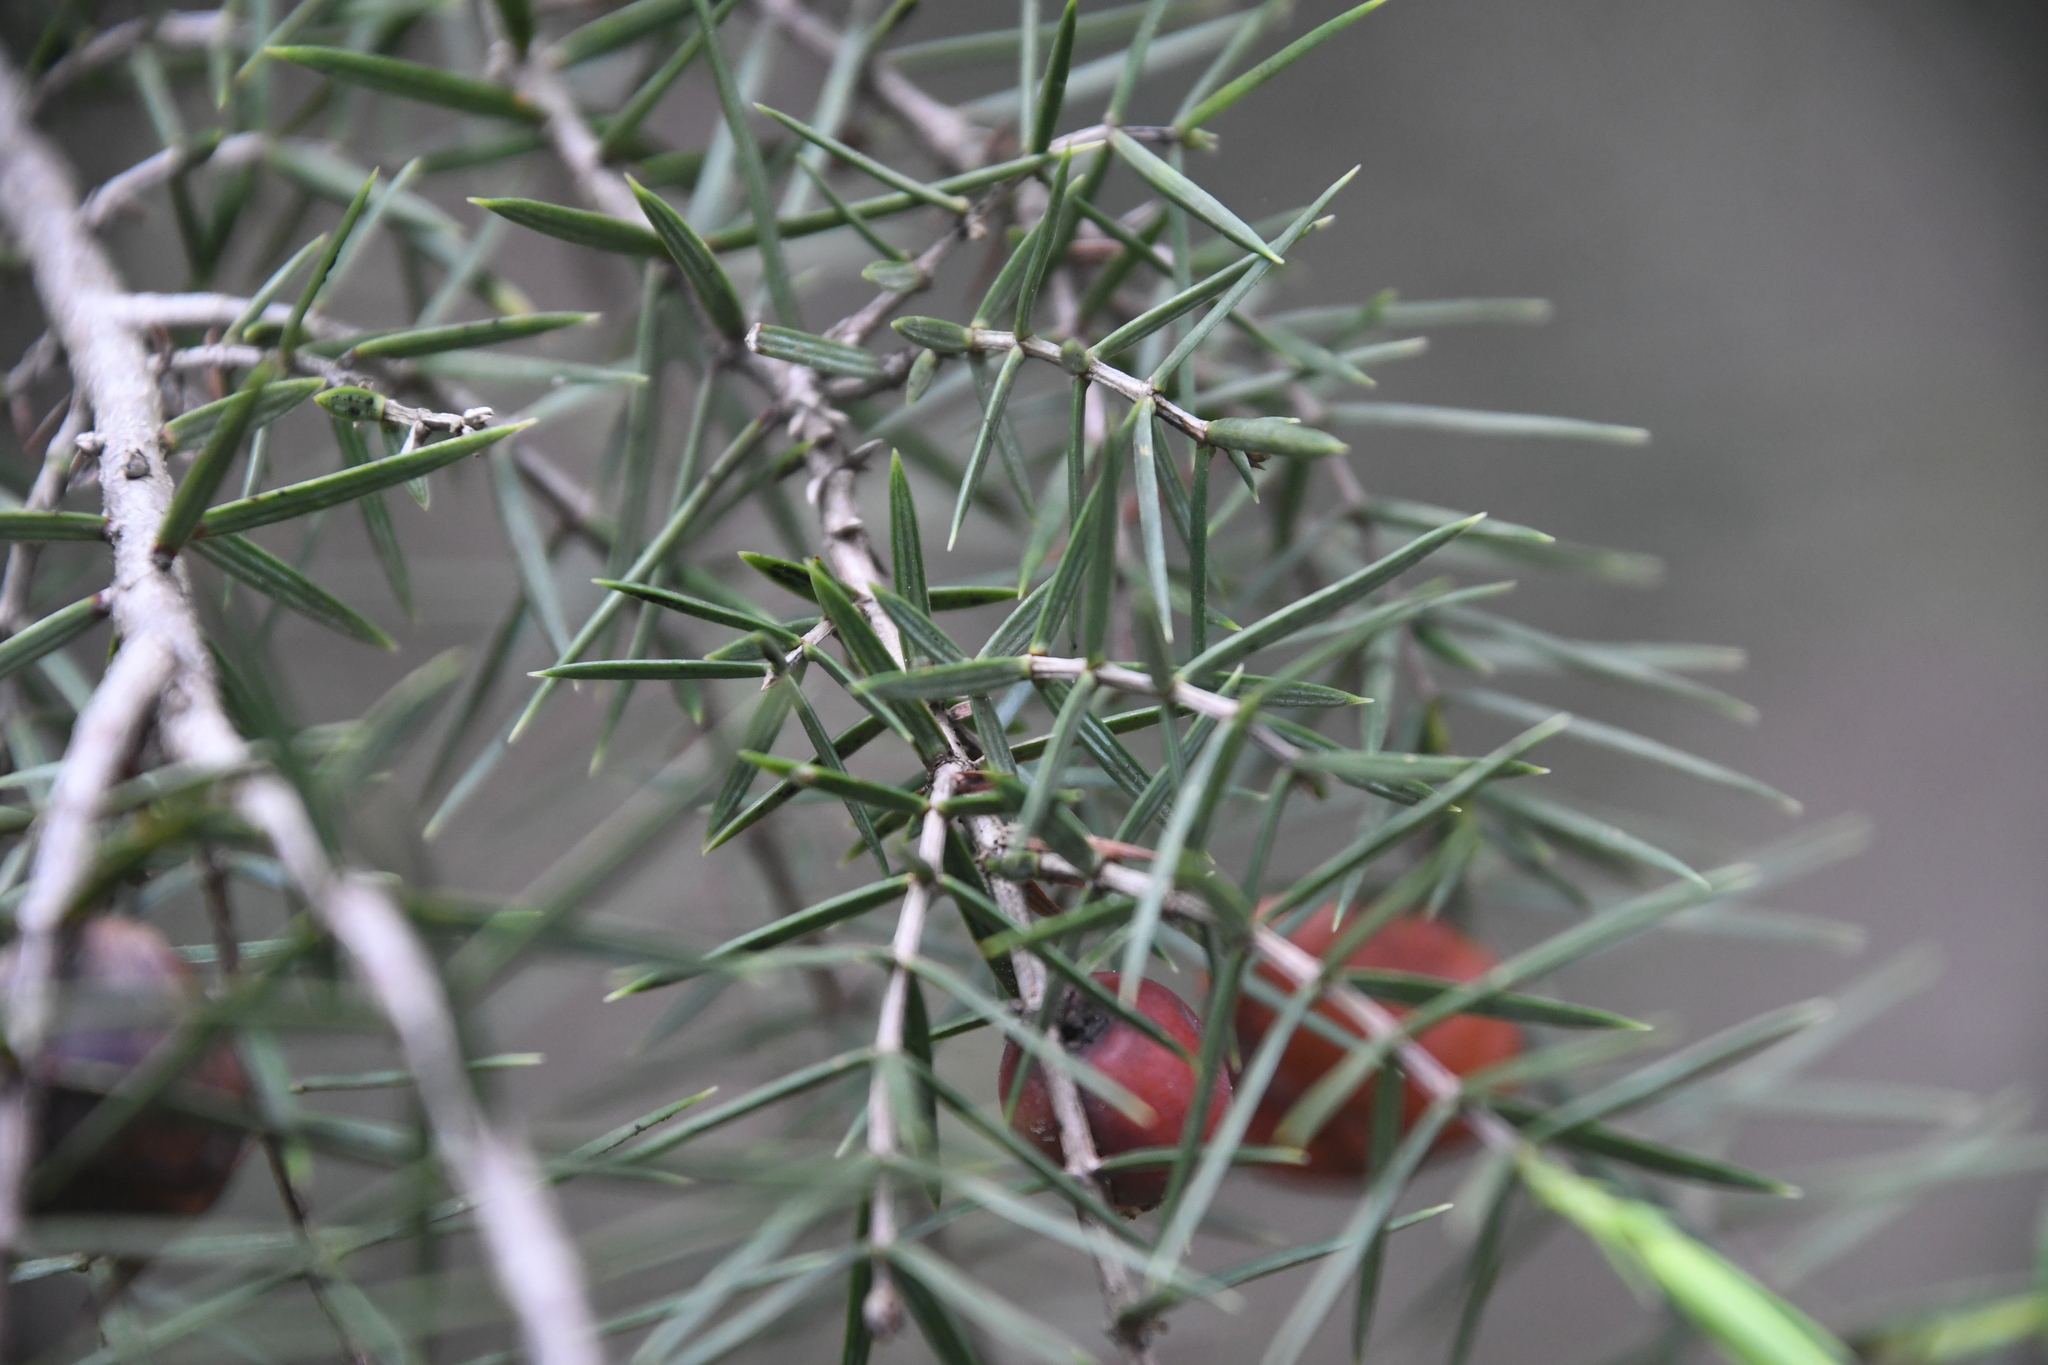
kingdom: Plantae
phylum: Tracheophyta
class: Pinopsida
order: Pinales
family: Cupressaceae
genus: Juniperus
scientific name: Juniperus oxycedrus
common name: Prickly juniper
